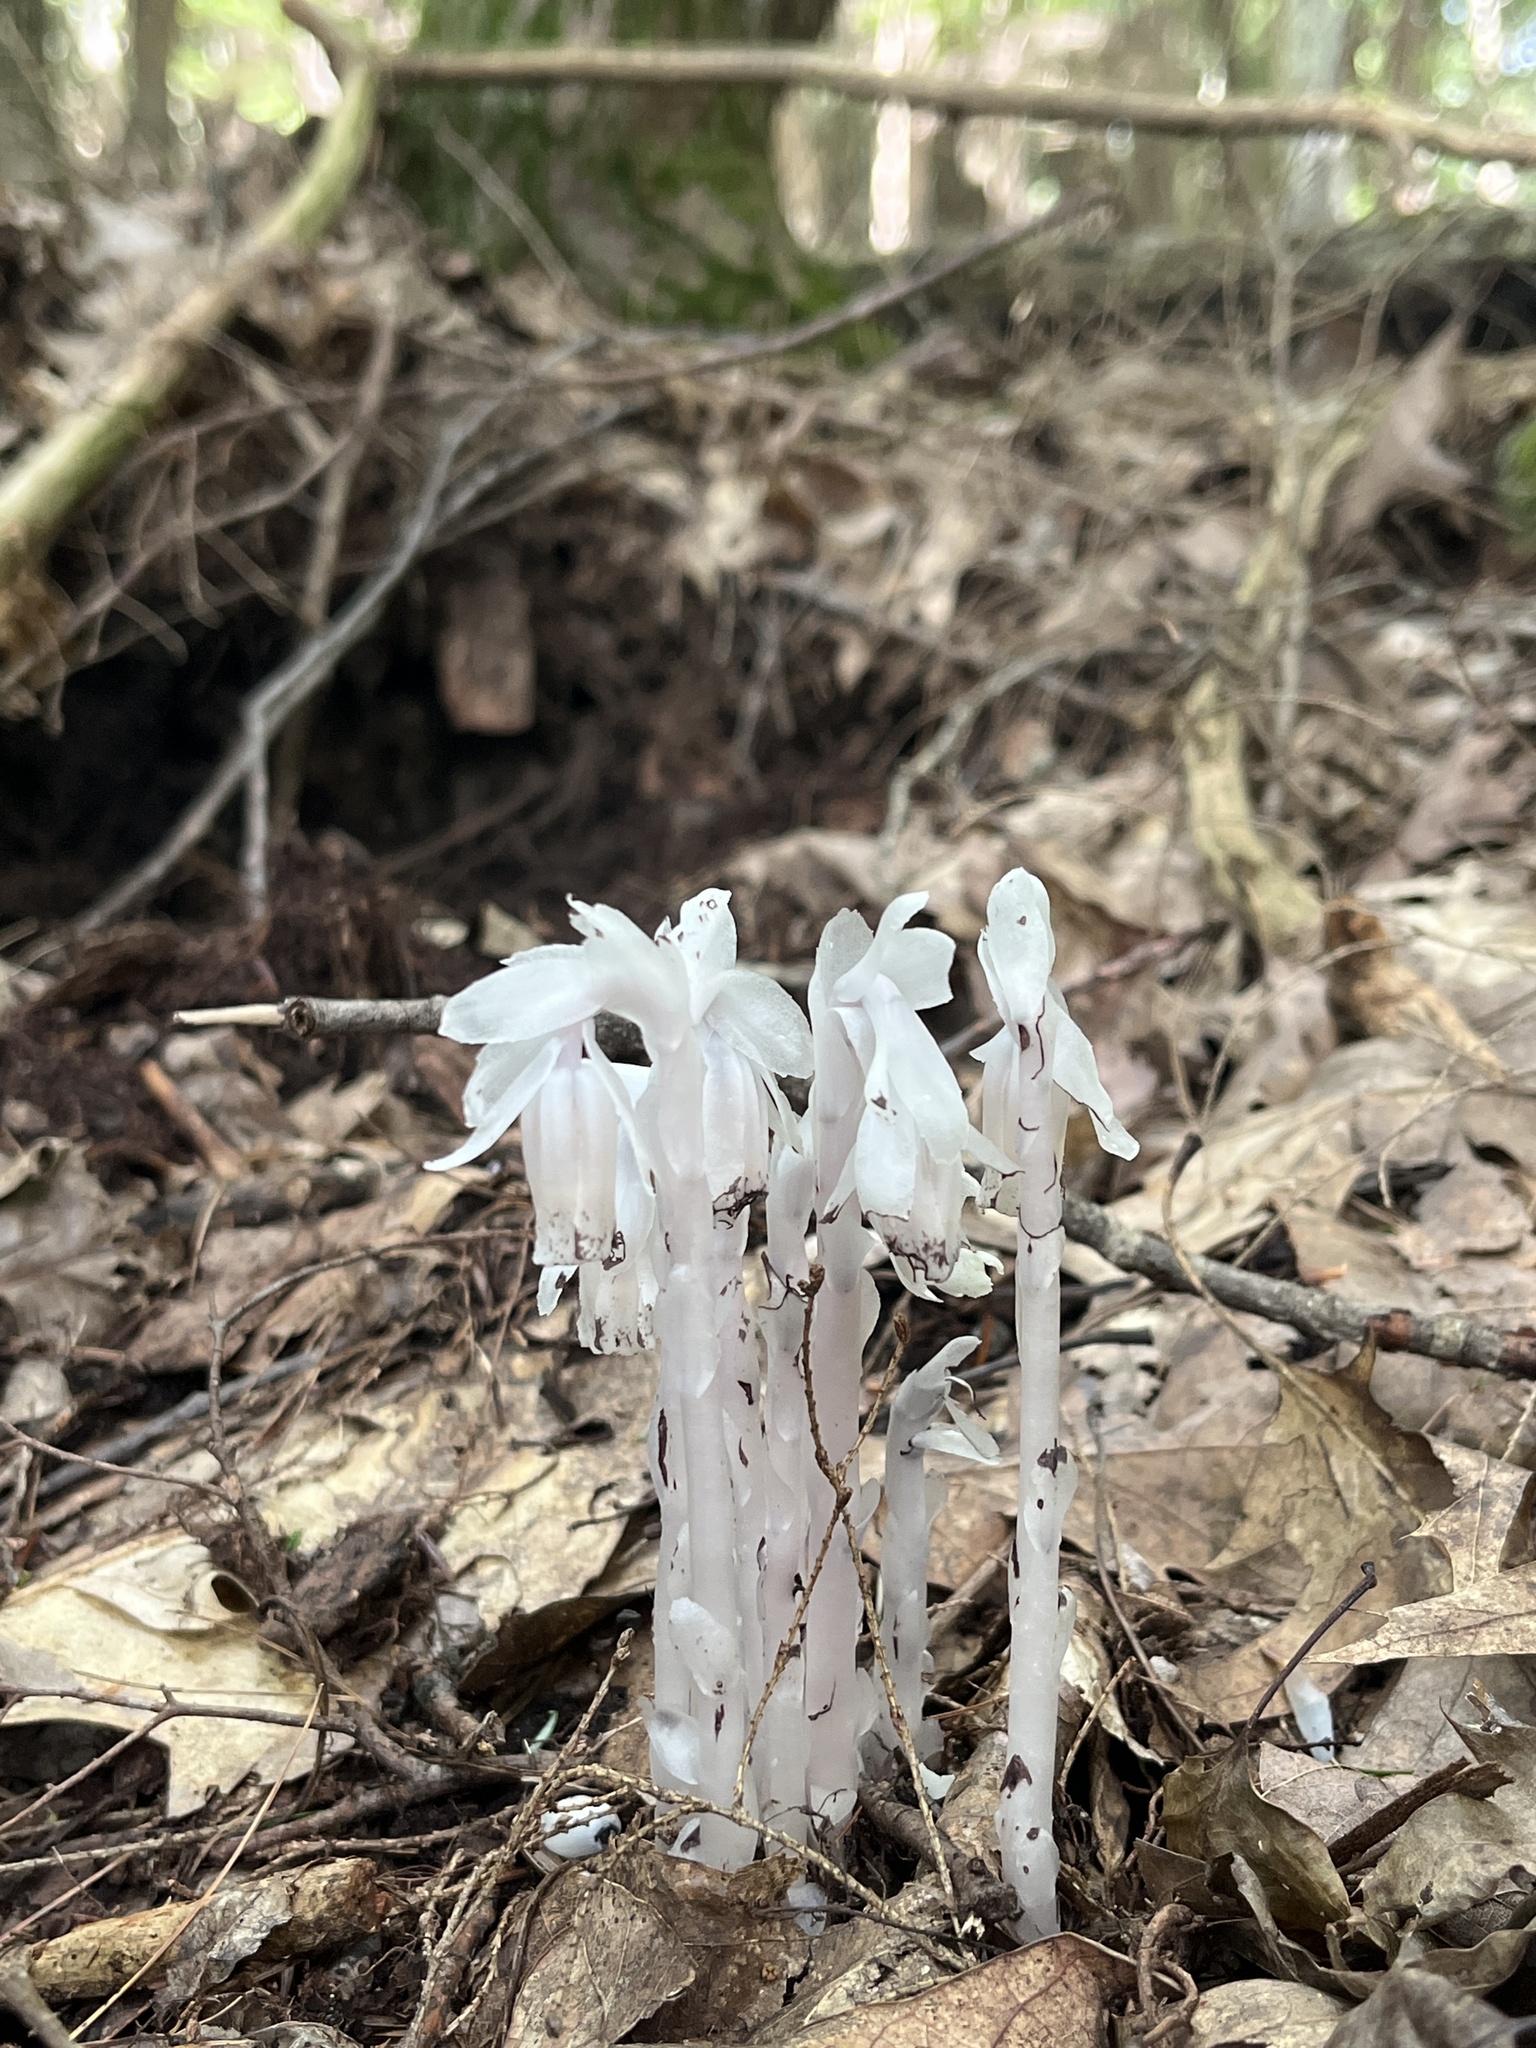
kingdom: Plantae
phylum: Tracheophyta
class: Magnoliopsida
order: Ericales
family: Ericaceae
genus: Monotropa
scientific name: Monotropa uniflora
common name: Convulsion root
